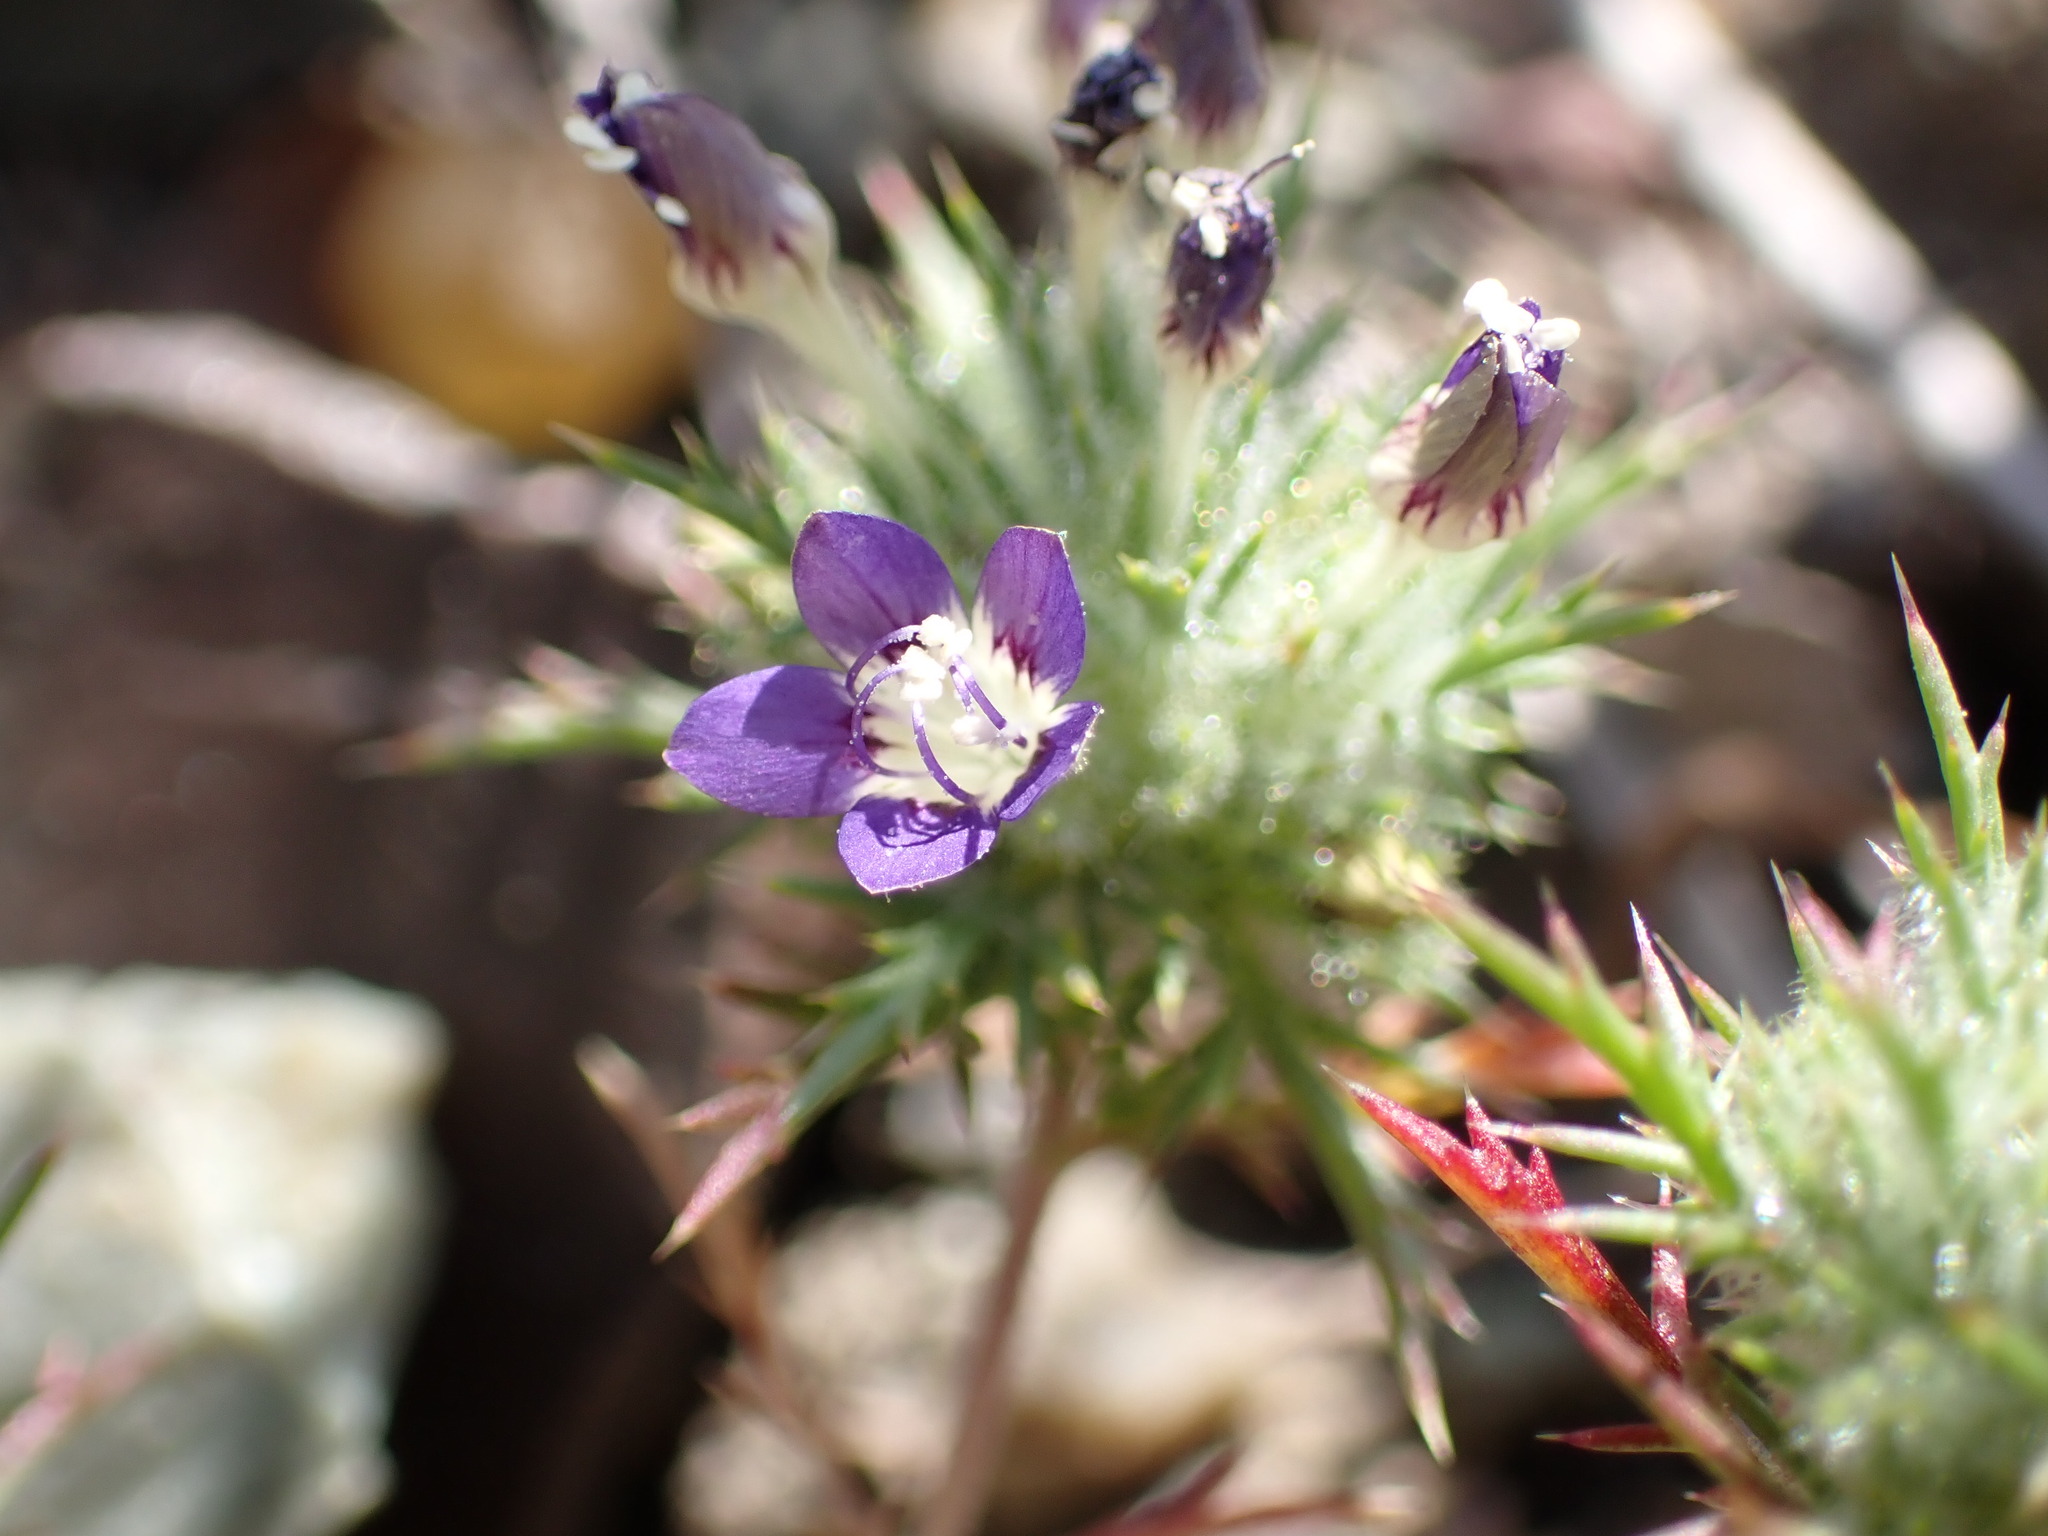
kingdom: Plantae
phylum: Tracheophyta
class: Magnoliopsida
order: Ericales
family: Polemoniaceae
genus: Navarretia
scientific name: Navarretia pubescens
